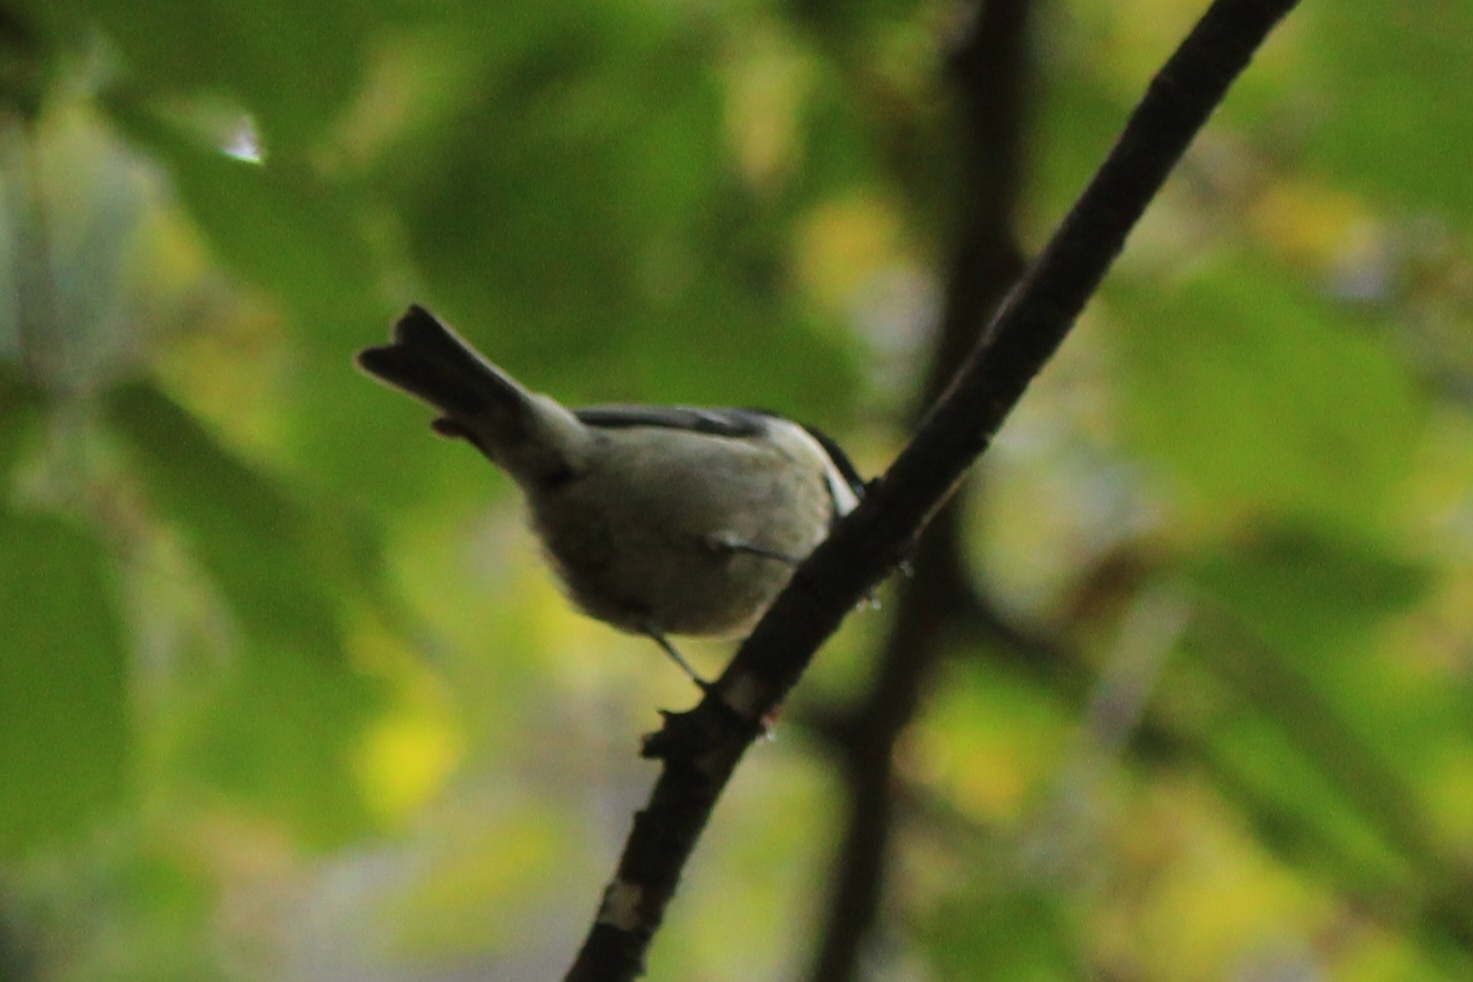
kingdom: Animalia
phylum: Chordata
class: Aves
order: Passeriformes
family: Paridae
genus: Periparus
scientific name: Periparus ater
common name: Coal tit
